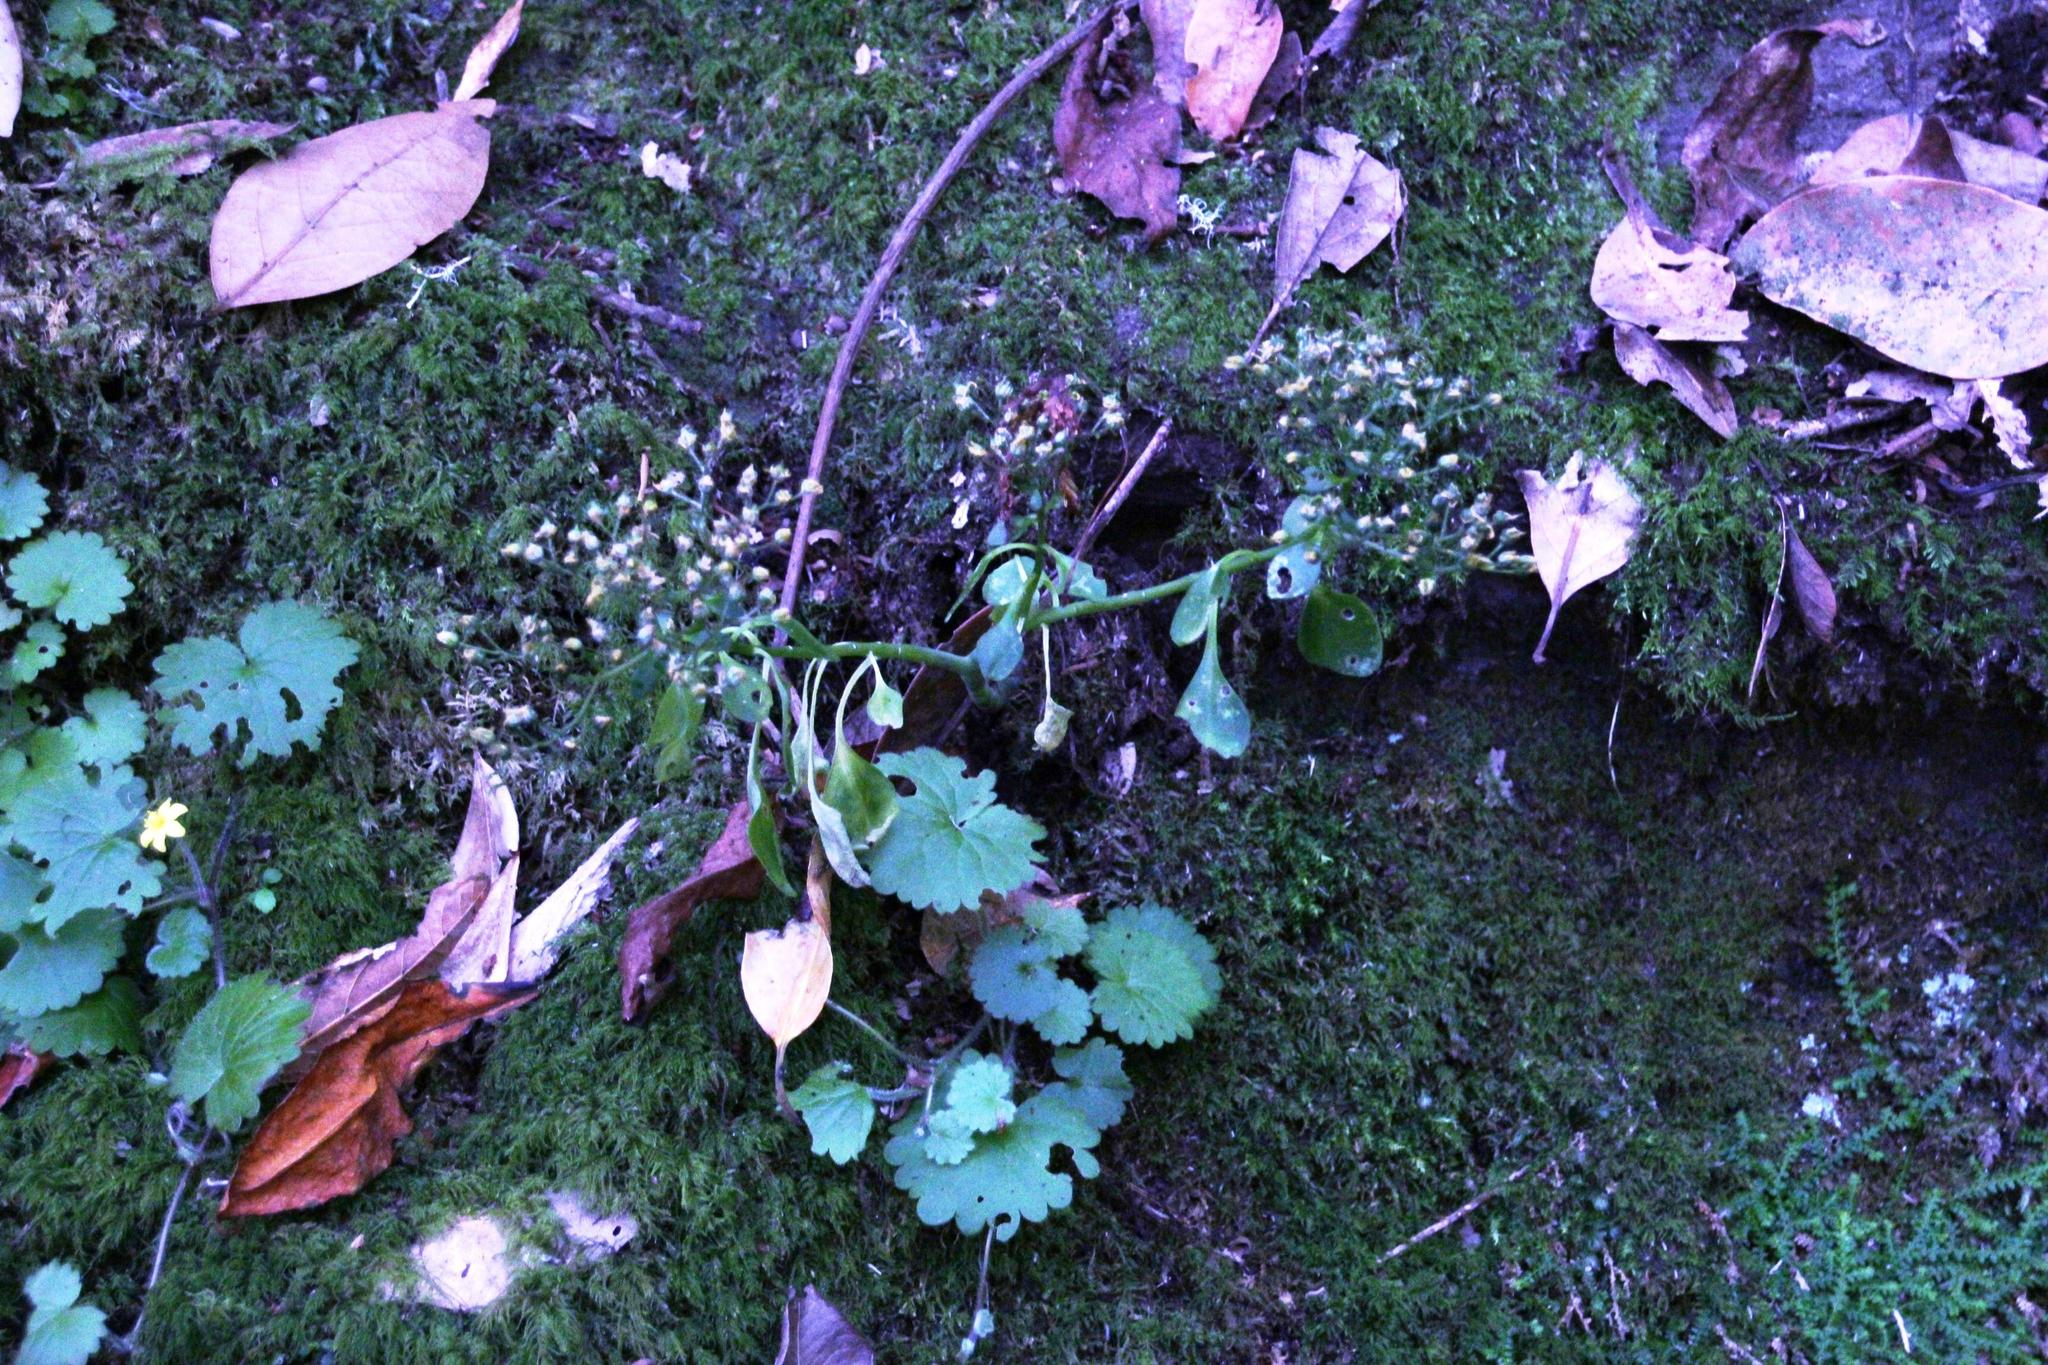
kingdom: Plantae
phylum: Tracheophyta
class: Magnoliopsida
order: Lamiales
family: Plantaginaceae
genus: Sibthorpia
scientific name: Sibthorpia peregrina
